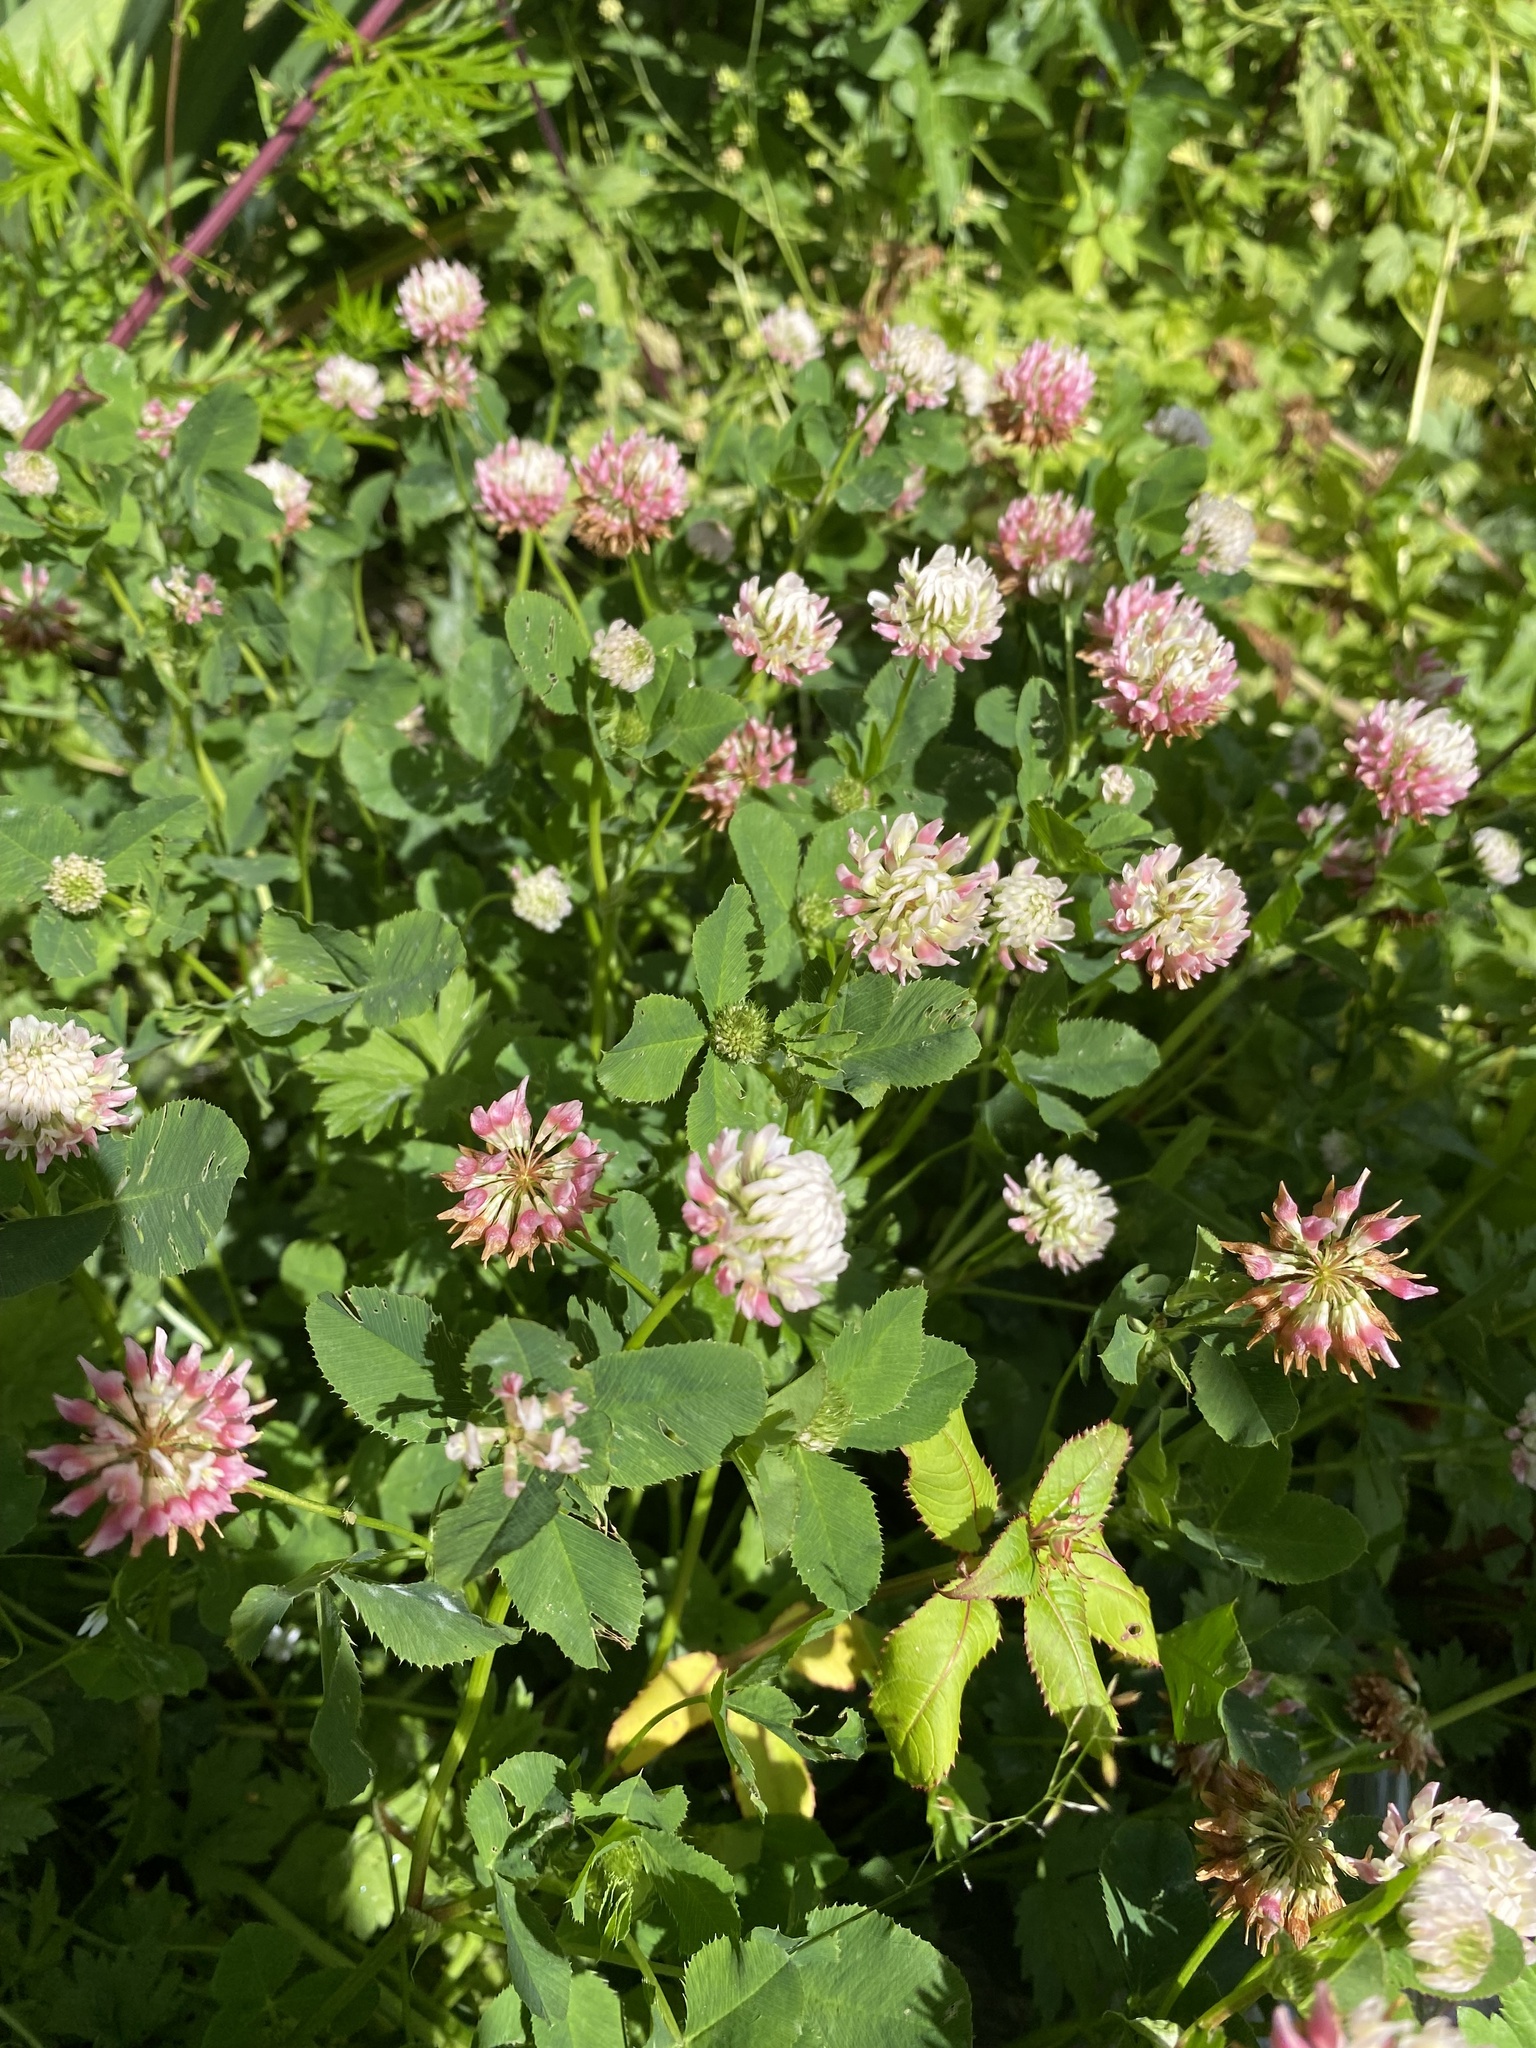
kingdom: Plantae
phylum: Tracheophyta
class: Magnoliopsida
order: Fabales
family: Fabaceae
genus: Trifolium
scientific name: Trifolium hybridum
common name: Alsike clover
